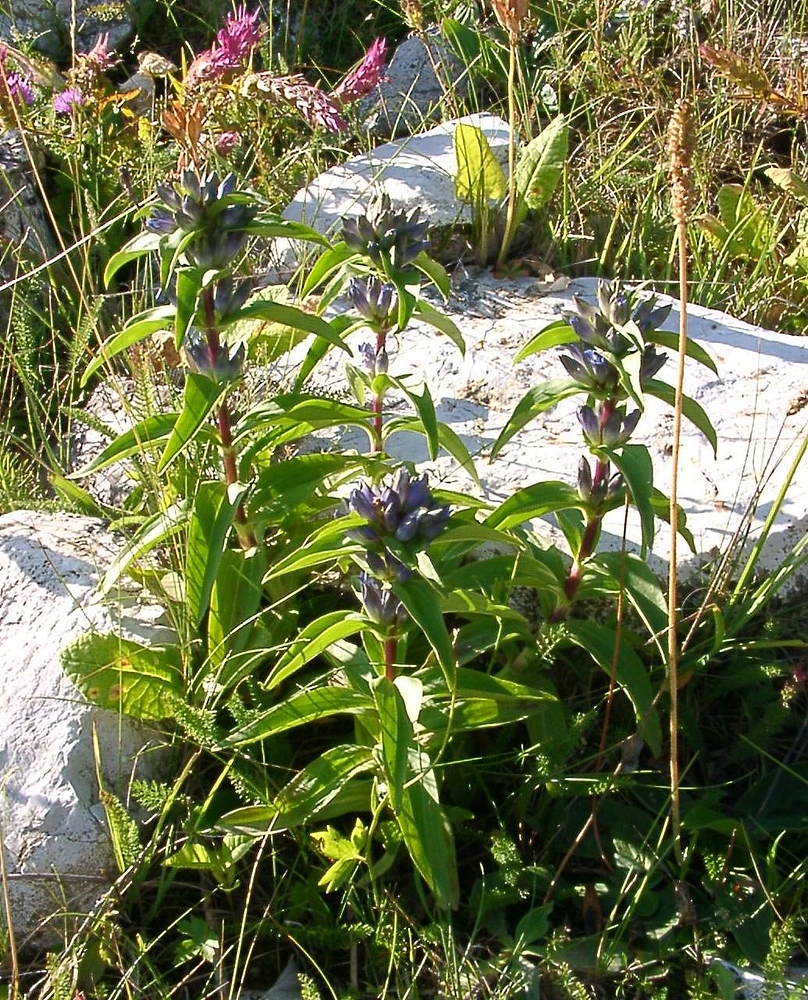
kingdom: Plantae
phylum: Tracheophyta
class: Magnoliopsida
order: Gentianales
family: Gentianaceae
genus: Gentiana
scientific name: Gentiana cruciata
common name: Cross gentian
